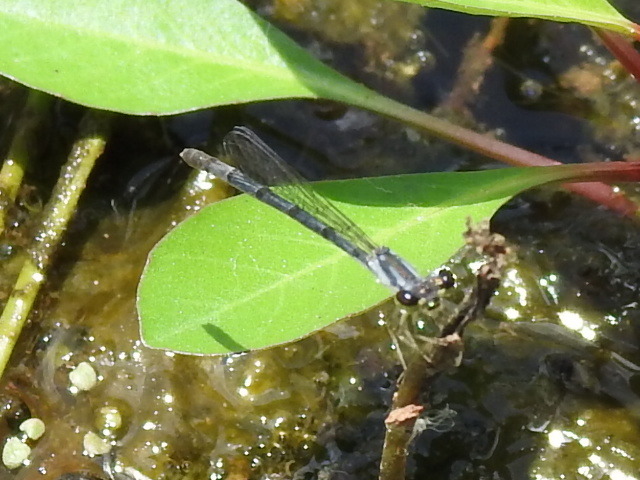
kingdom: Animalia
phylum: Arthropoda
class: Insecta
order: Odonata
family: Coenagrionidae
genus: Ischnura
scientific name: Ischnura posita
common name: Fragile forktail
